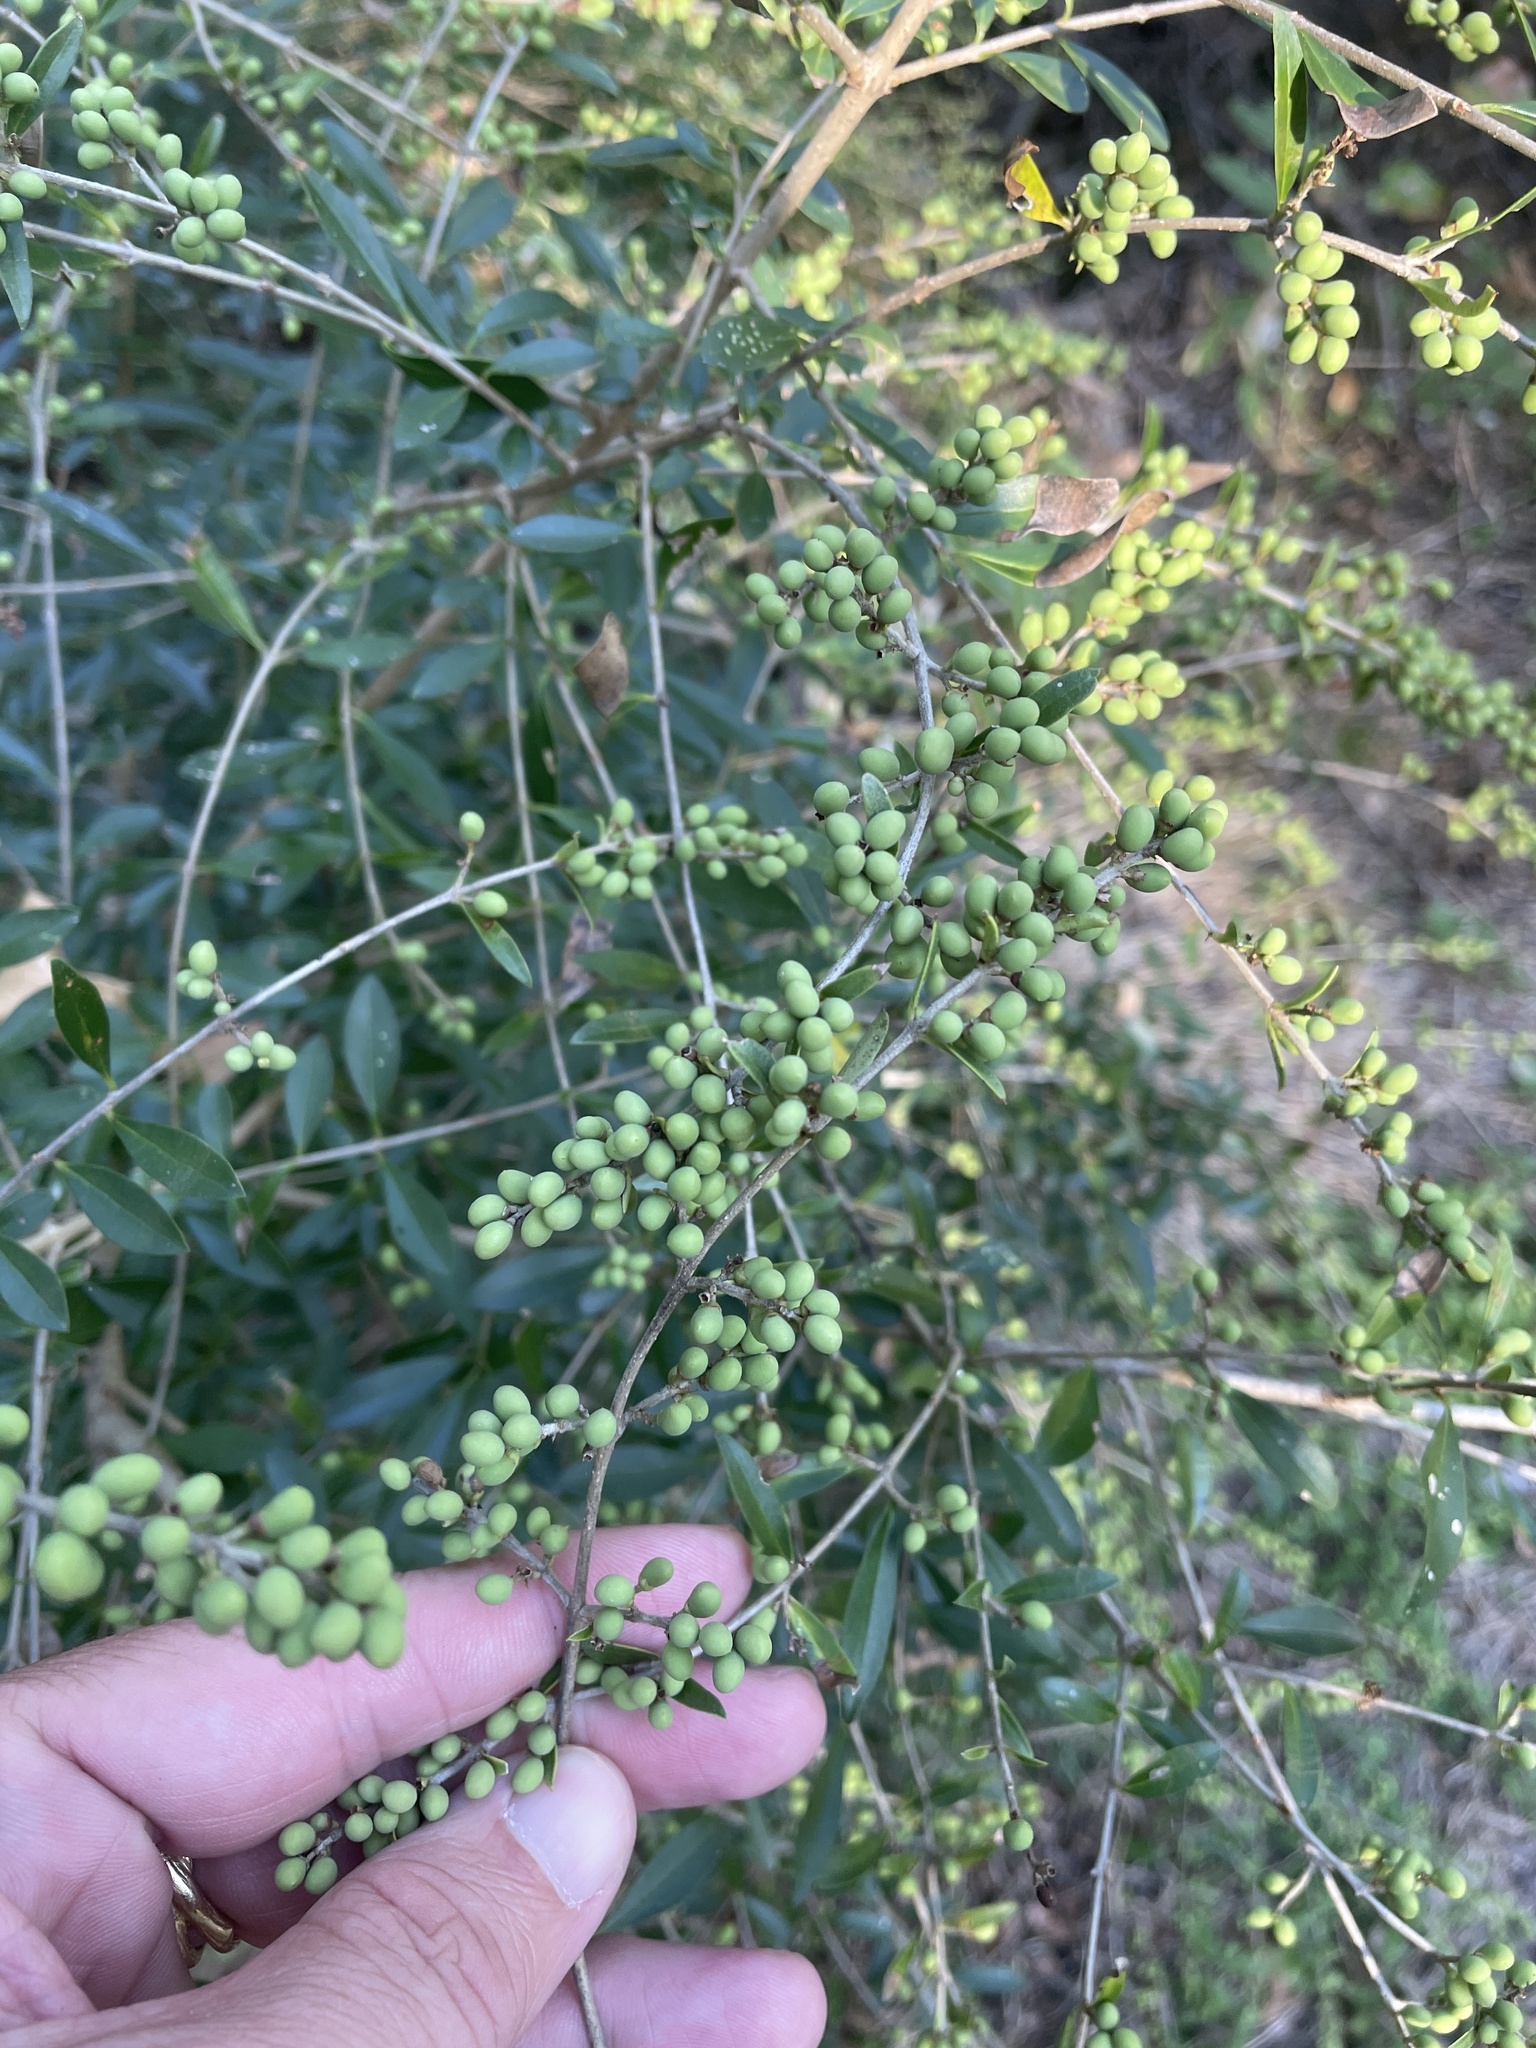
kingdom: Plantae
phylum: Tracheophyta
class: Magnoliopsida
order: Lamiales
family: Oleaceae
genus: Ligustrum
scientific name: Ligustrum quihoui
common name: Waxyleaf privet
